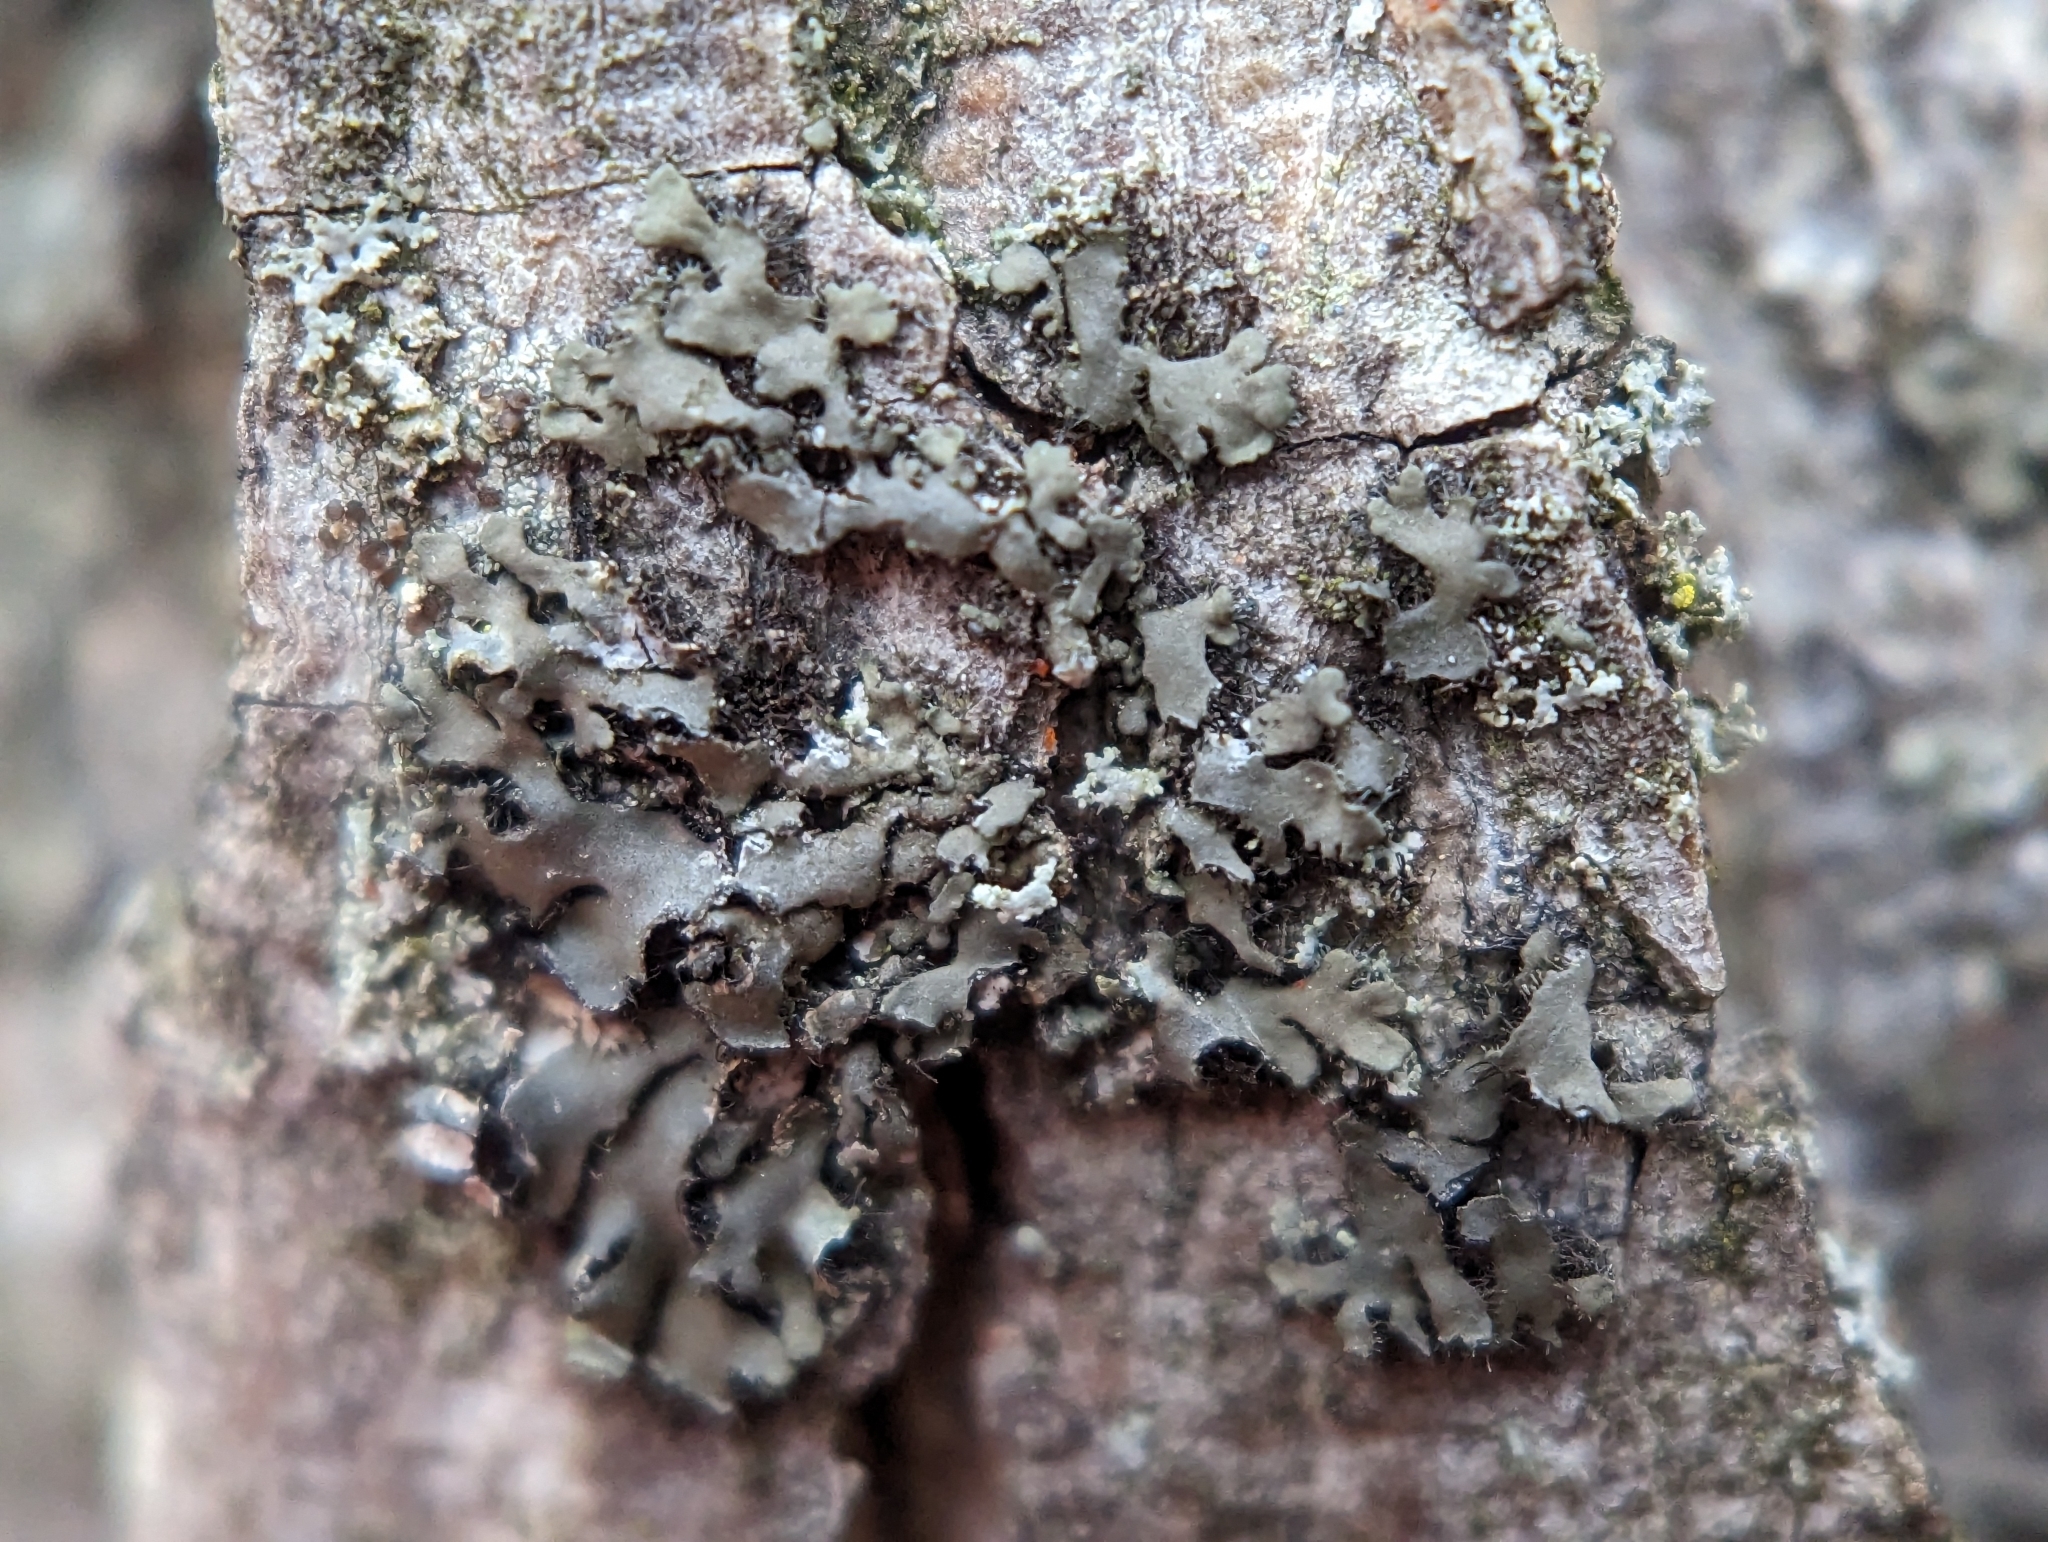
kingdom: Fungi
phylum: Ascomycota
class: Lecanoromycetes
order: Caliciales
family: Physciaceae
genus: Phaeophyscia
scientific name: Phaeophyscia rubropulchra
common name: Orange-cored shadow lichen
